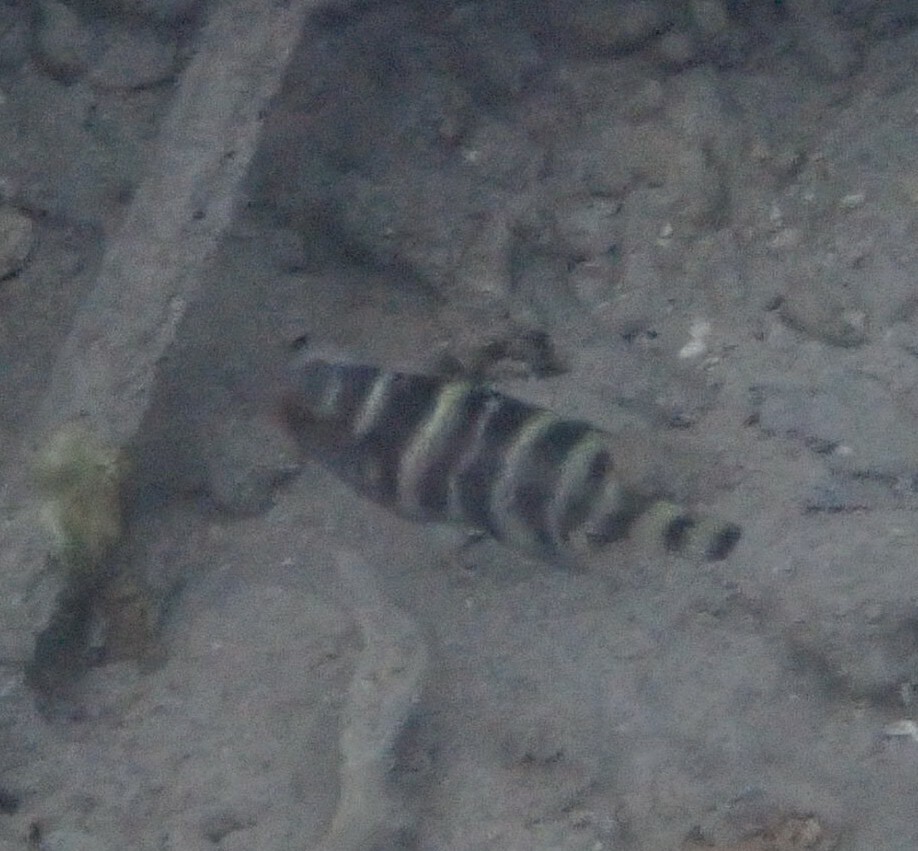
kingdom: Animalia
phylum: Chordata
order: Perciformes
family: Labridae
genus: Cheilinus
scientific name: Cheilinus fasciatus
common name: Red-breasted wrasse
